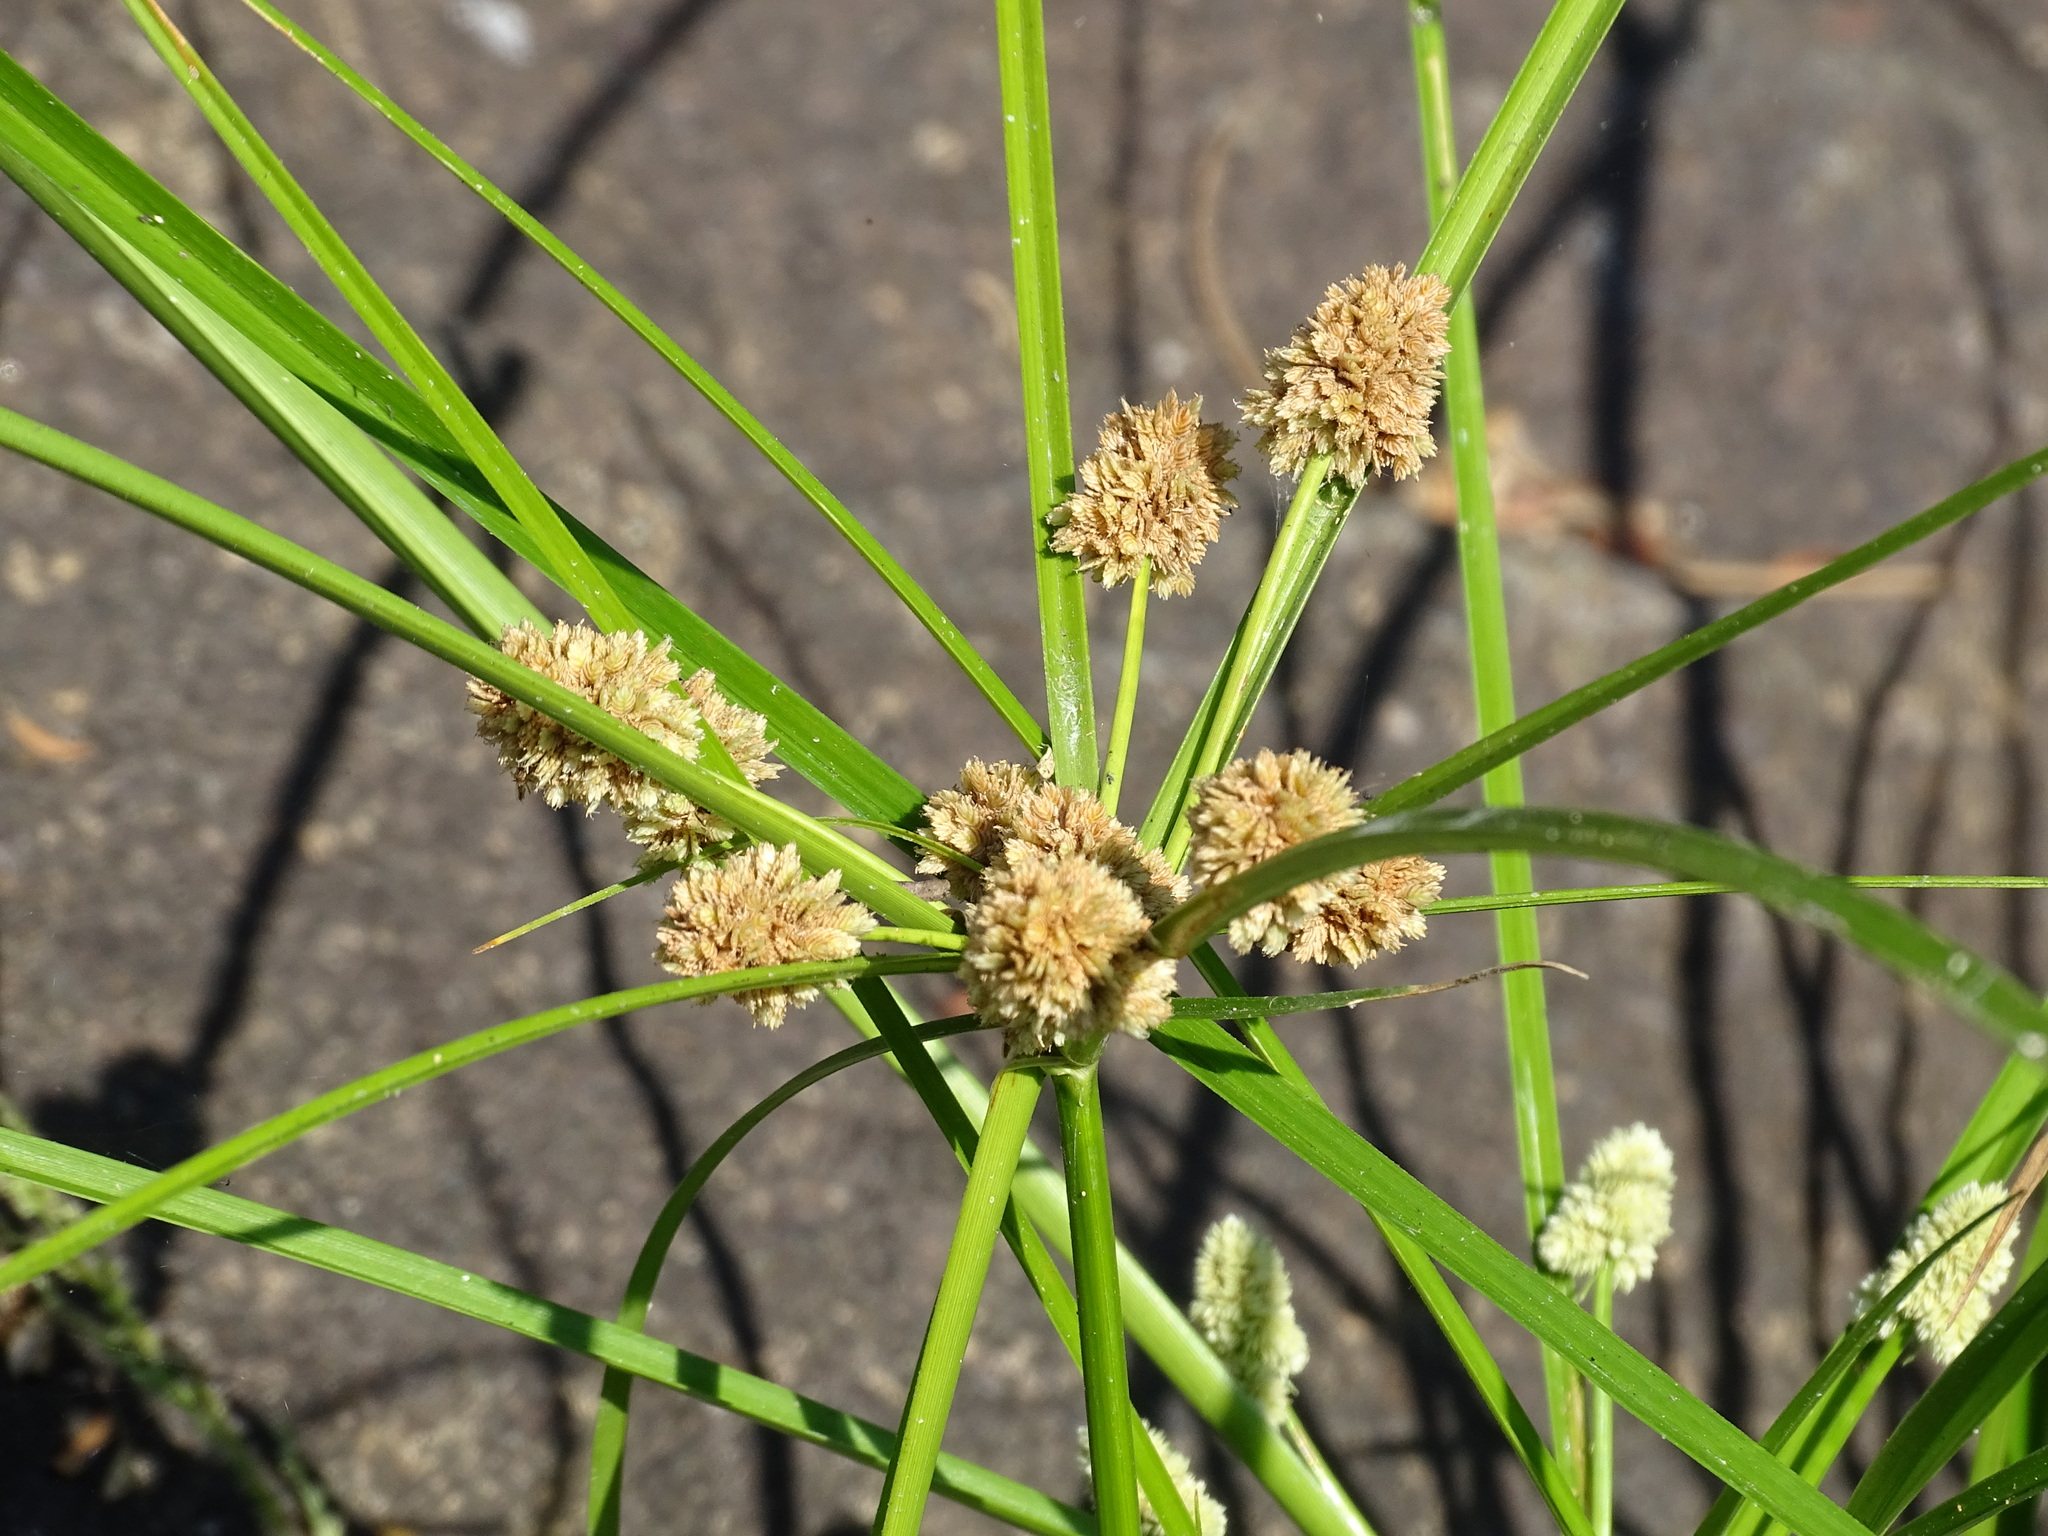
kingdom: Plantae
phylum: Tracheophyta
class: Liliopsida
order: Poales
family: Cyperaceae
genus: Cyperus
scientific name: Cyperus luzulae
